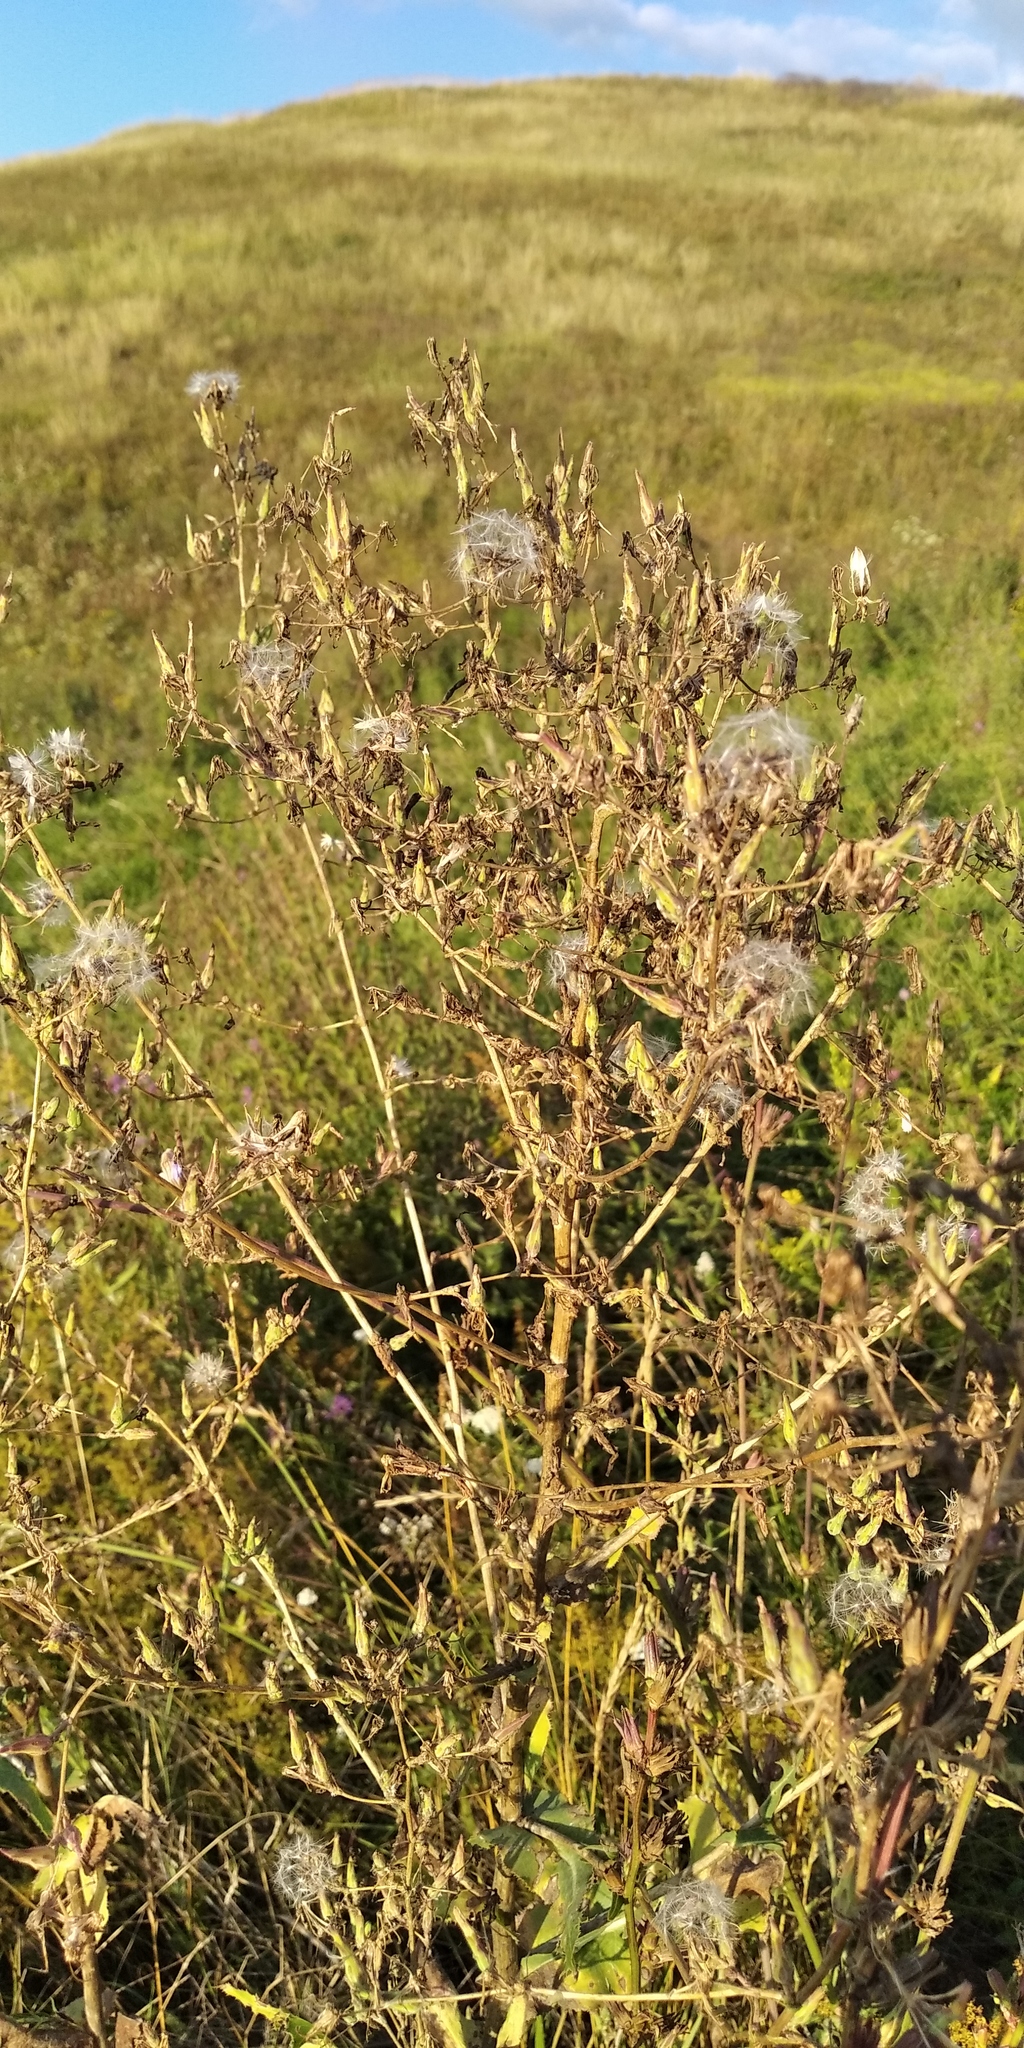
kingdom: Plantae
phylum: Tracheophyta
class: Magnoliopsida
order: Asterales
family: Asteraceae
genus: Lactuca
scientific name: Lactuca serriola
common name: Prickly lettuce
